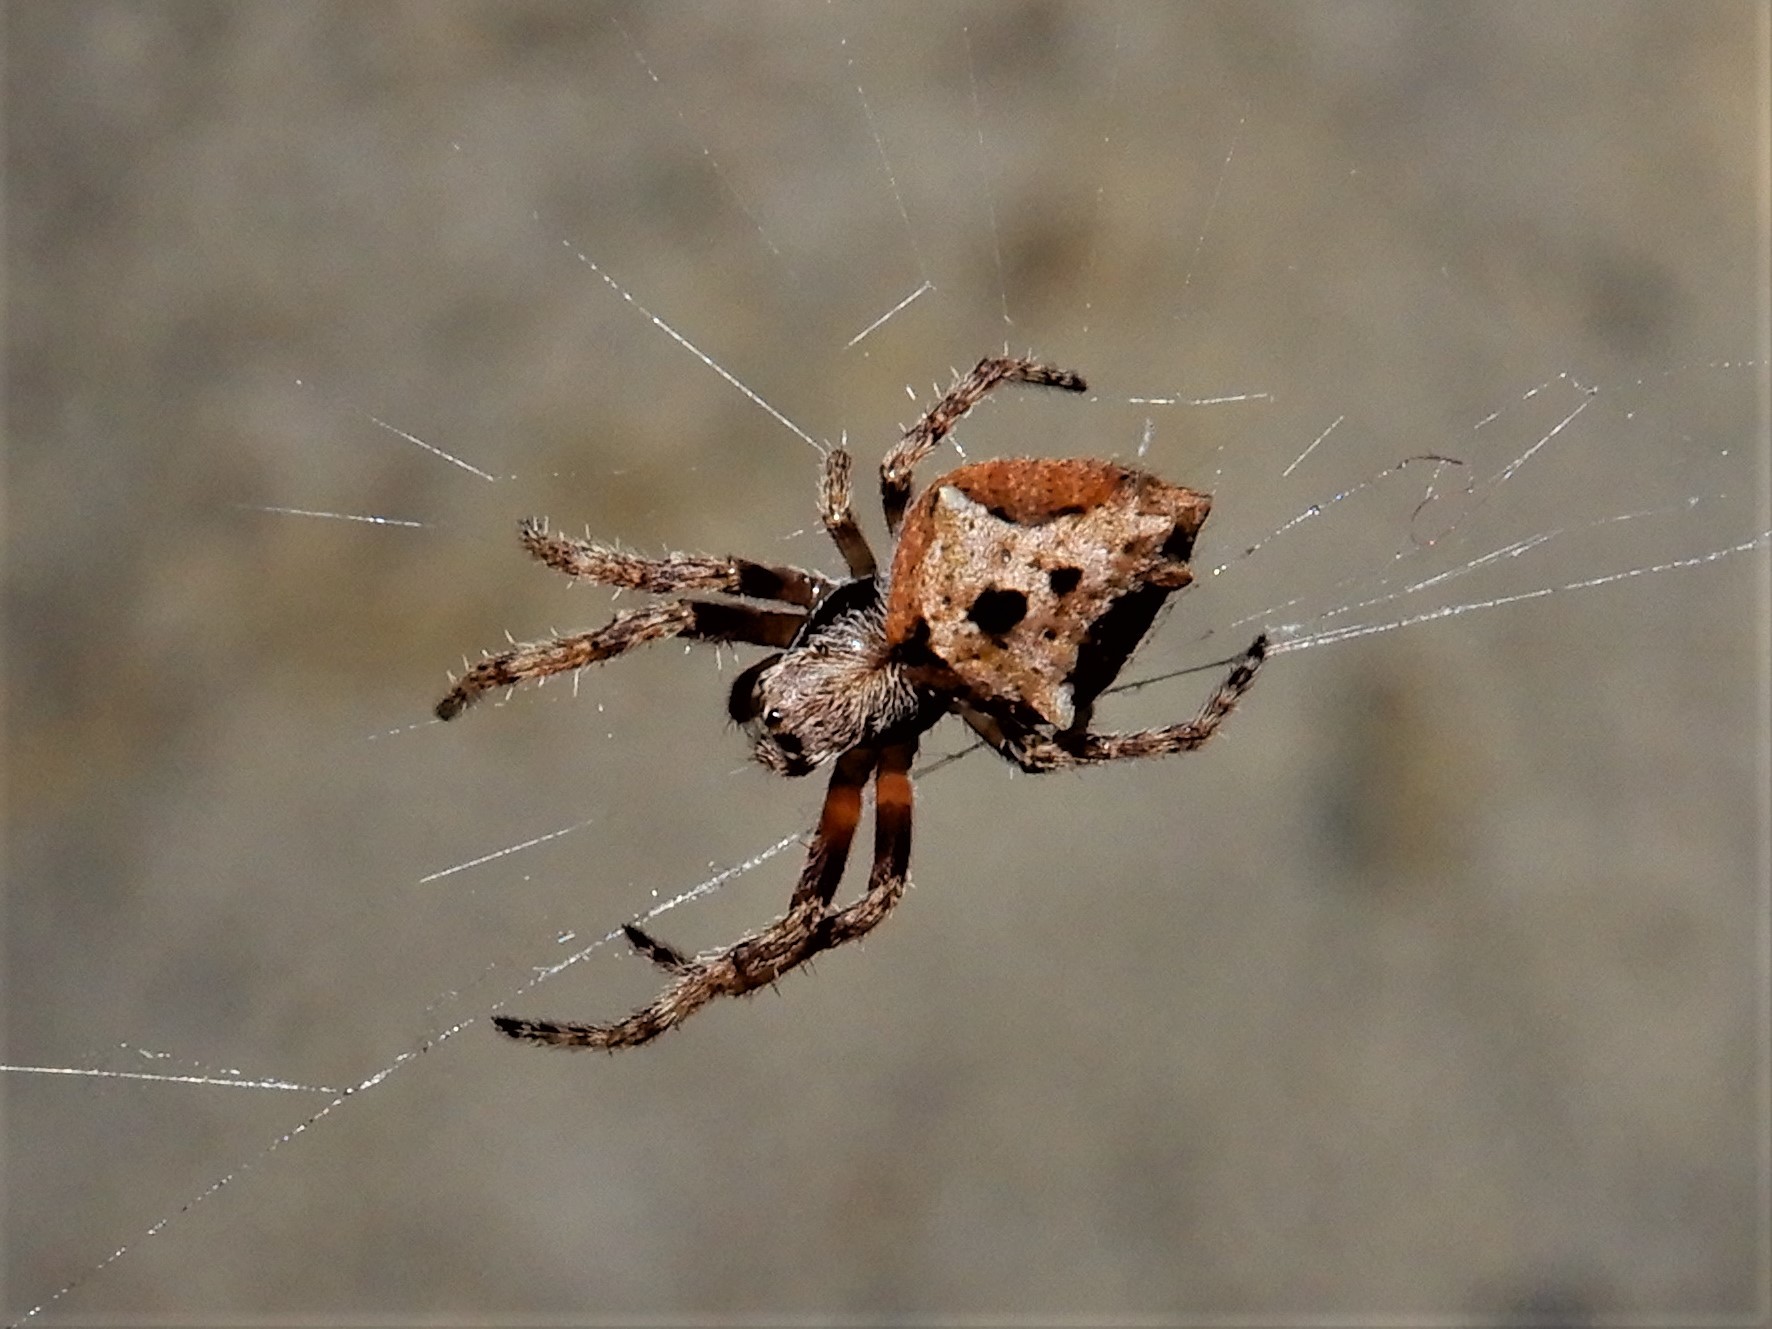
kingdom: Animalia
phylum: Arthropoda
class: Arachnida
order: Araneae
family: Araneidae
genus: Eriophora
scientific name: Eriophora pustulosa
